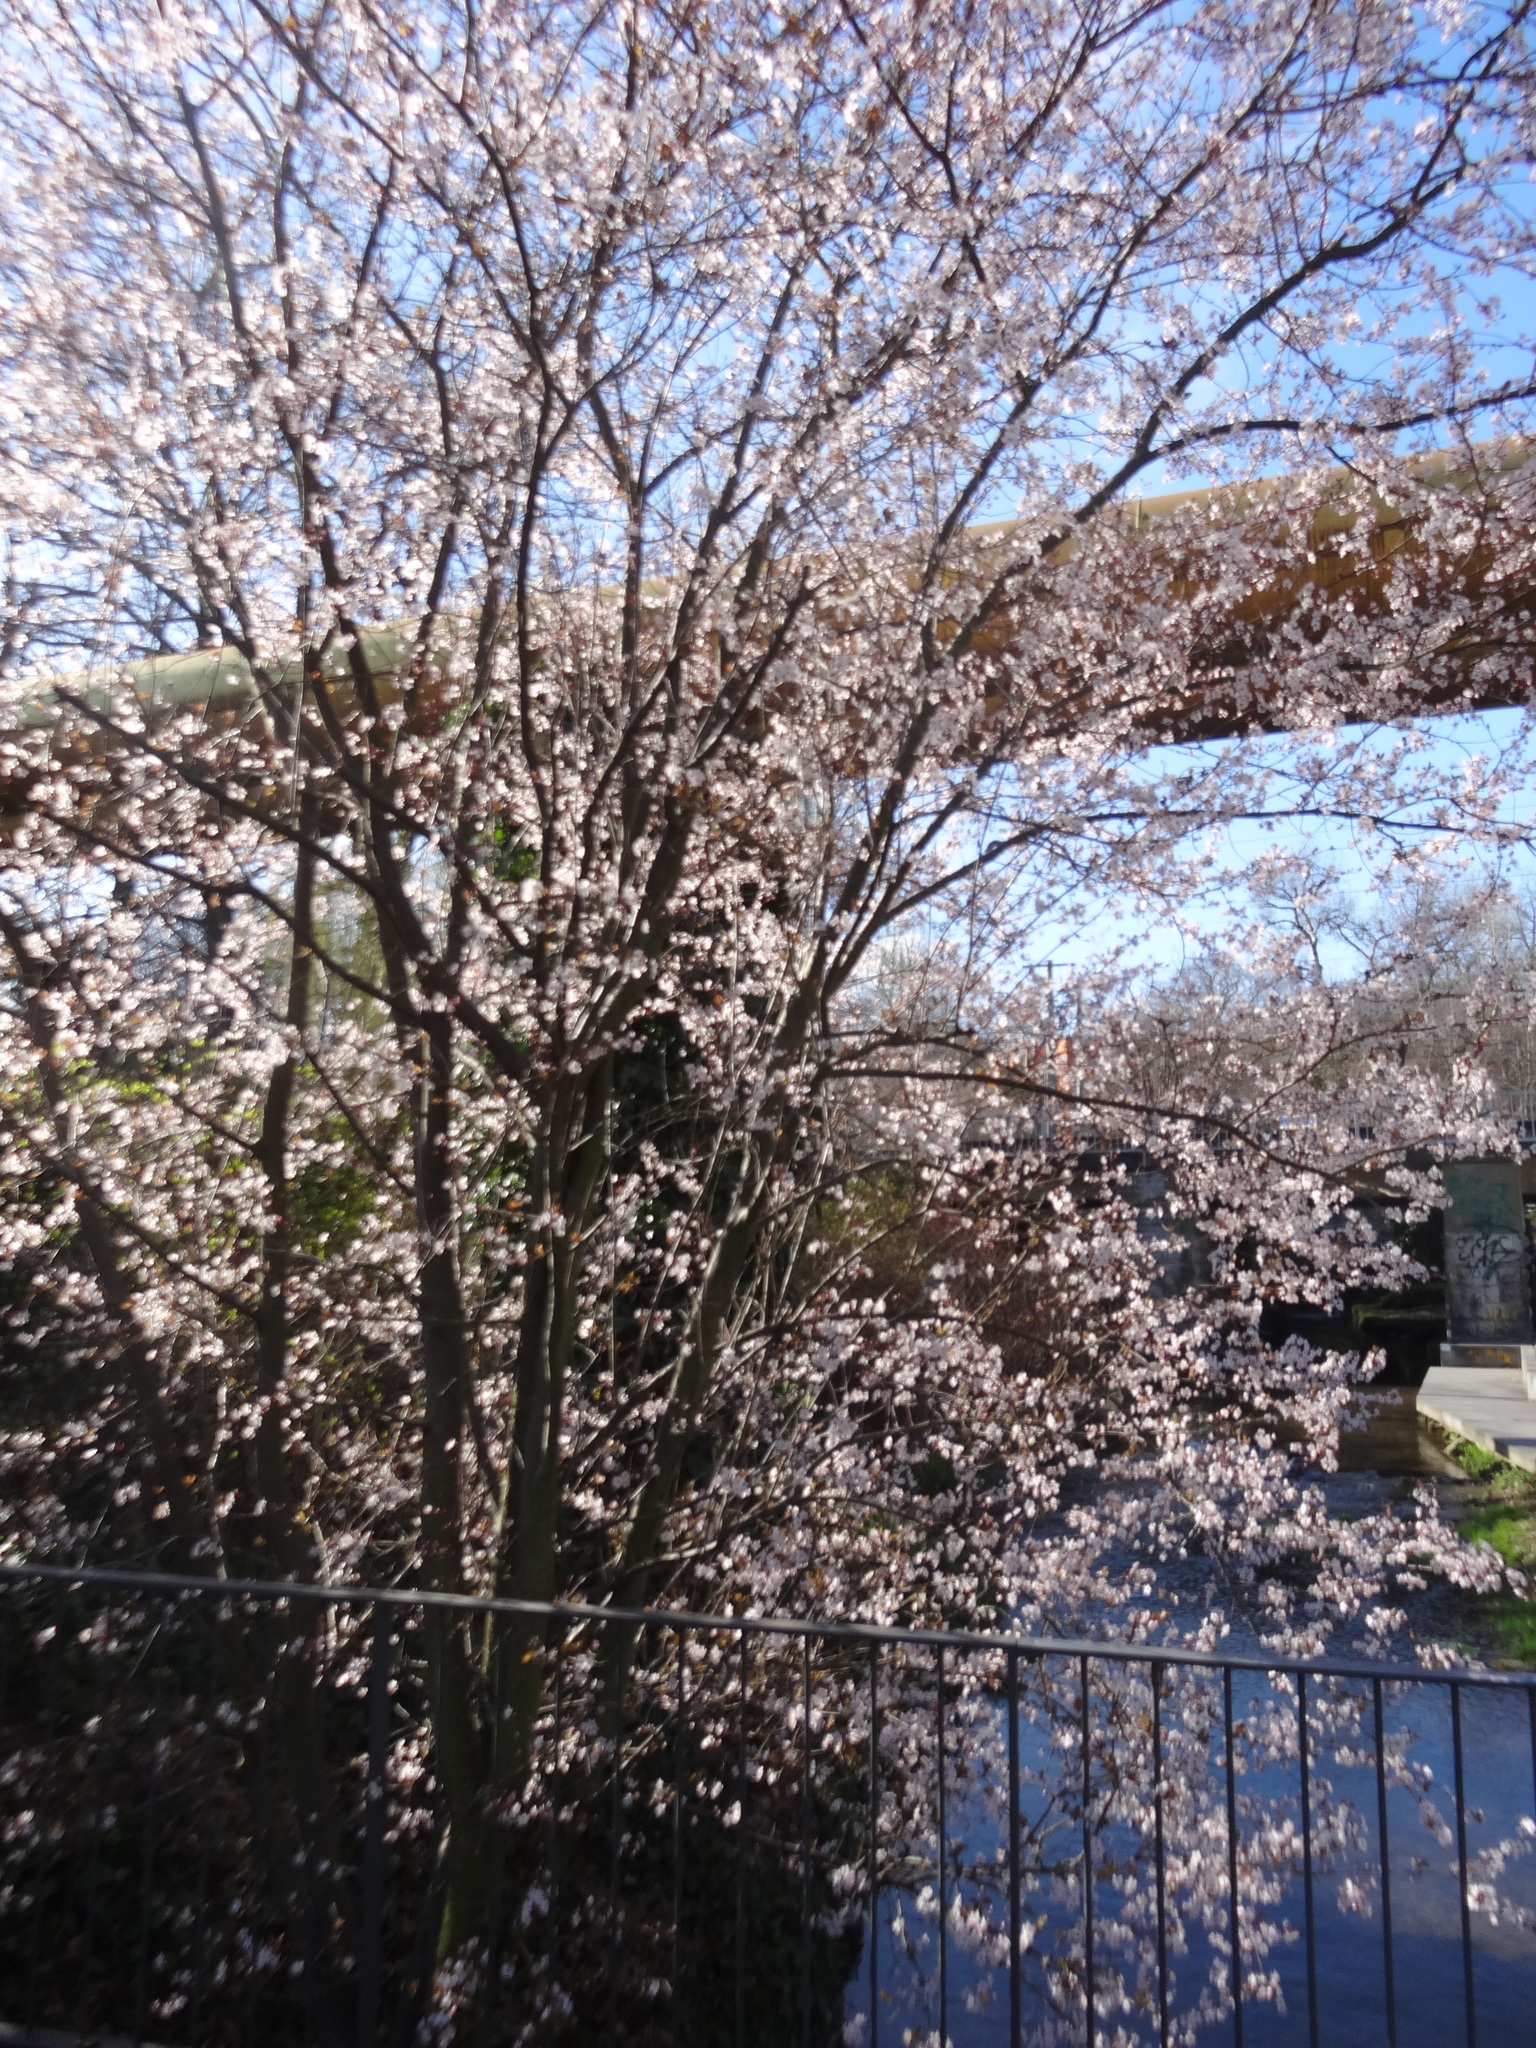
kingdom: Plantae
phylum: Tracheophyta
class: Magnoliopsida
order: Rosales
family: Rosaceae
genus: Prunus
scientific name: Prunus cerasifera
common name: Cherry plum
